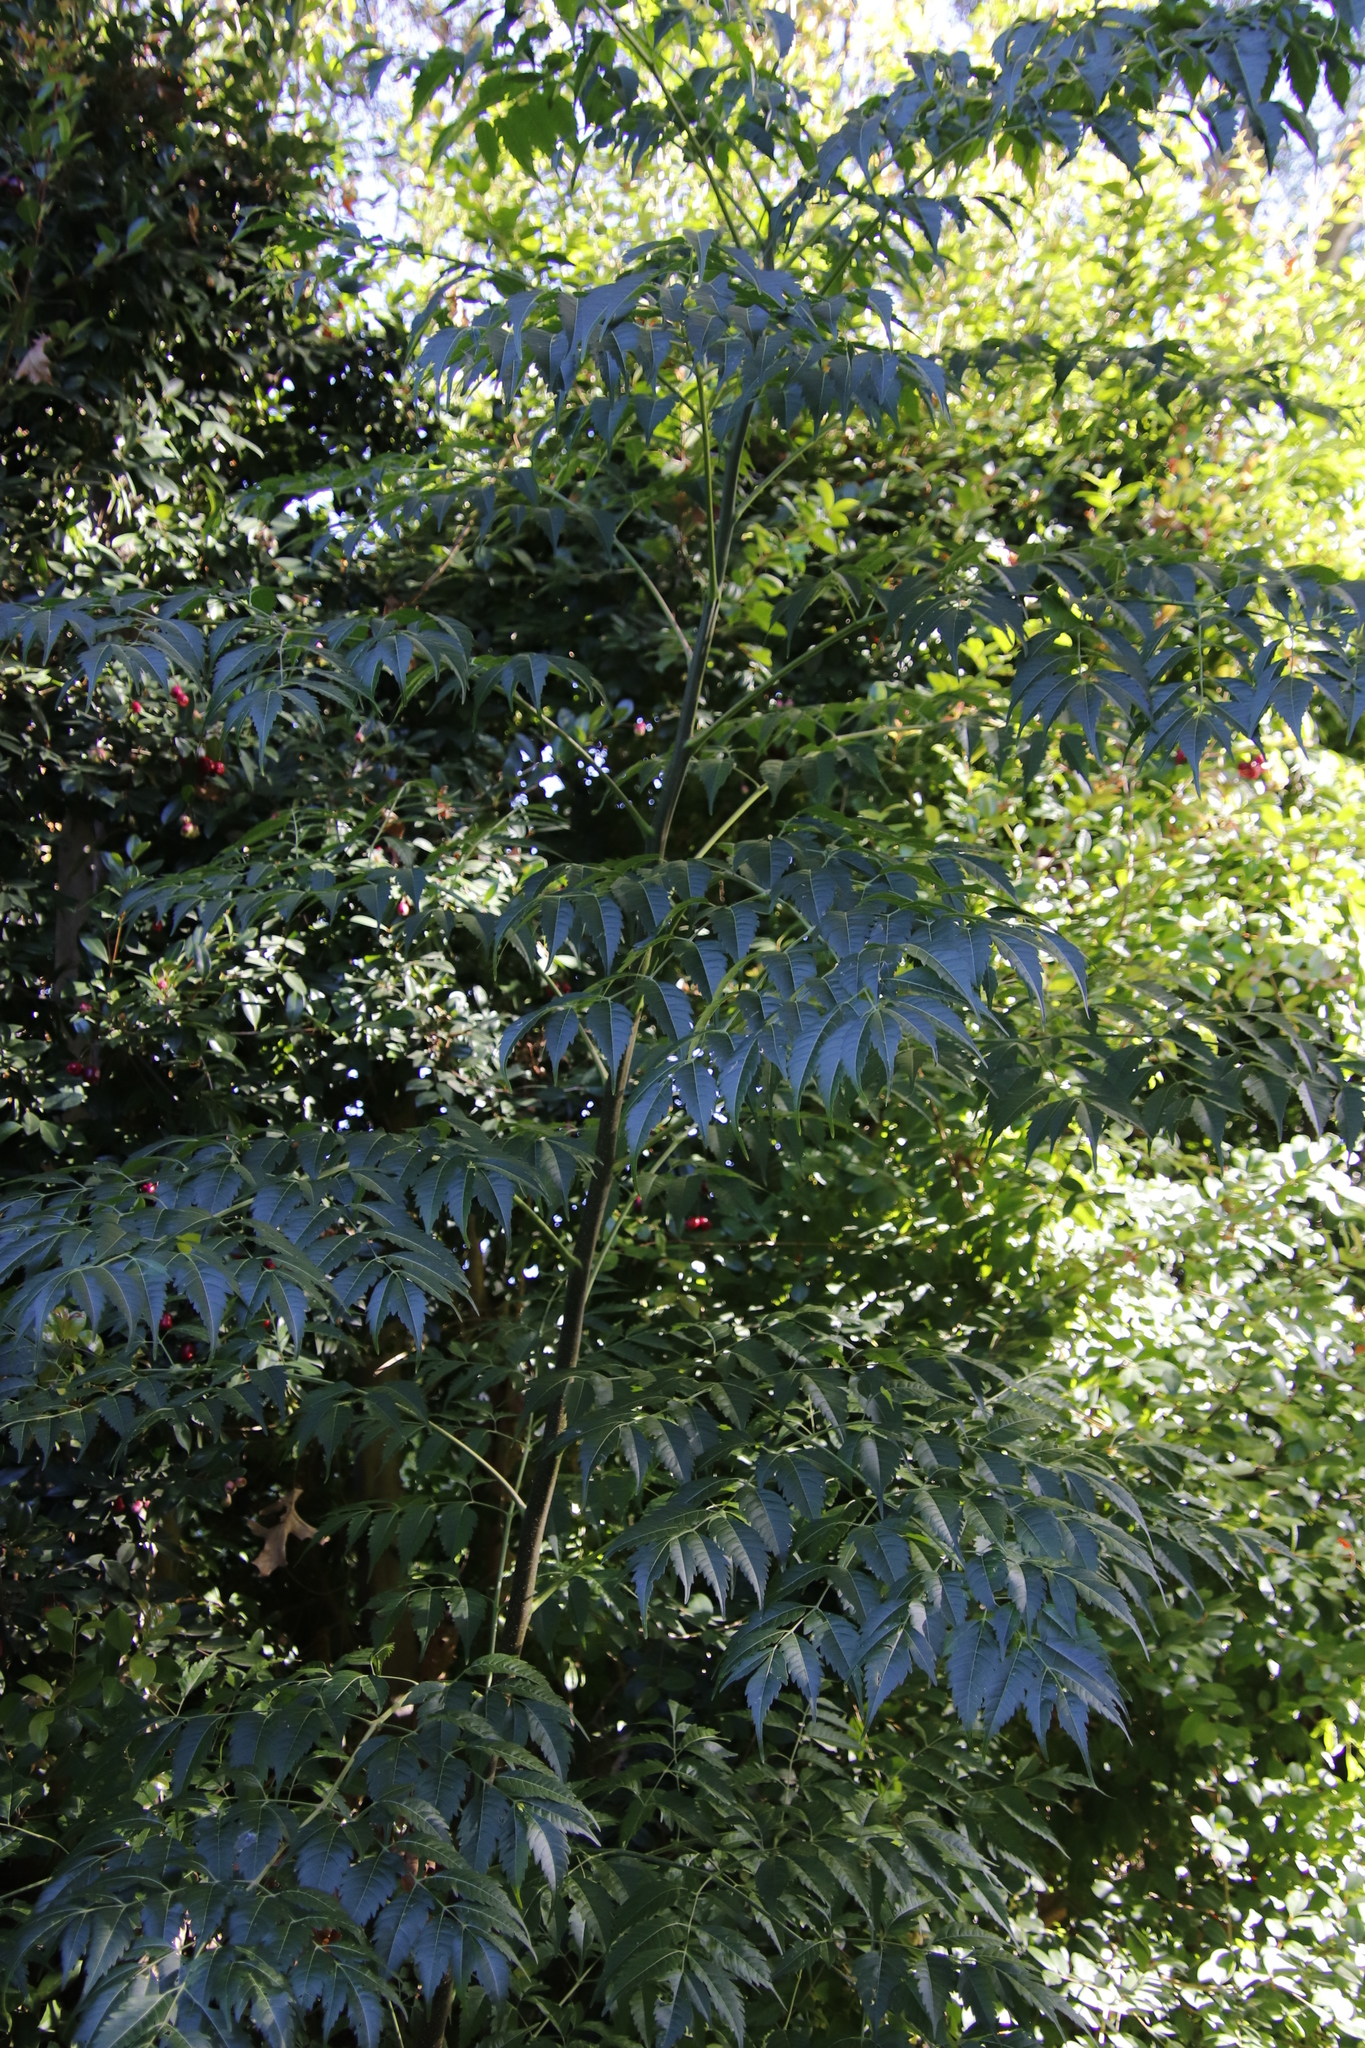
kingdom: Plantae
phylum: Tracheophyta
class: Magnoliopsida
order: Sapindales
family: Meliaceae
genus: Melia
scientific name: Melia azedarach
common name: Chinaberrytree
